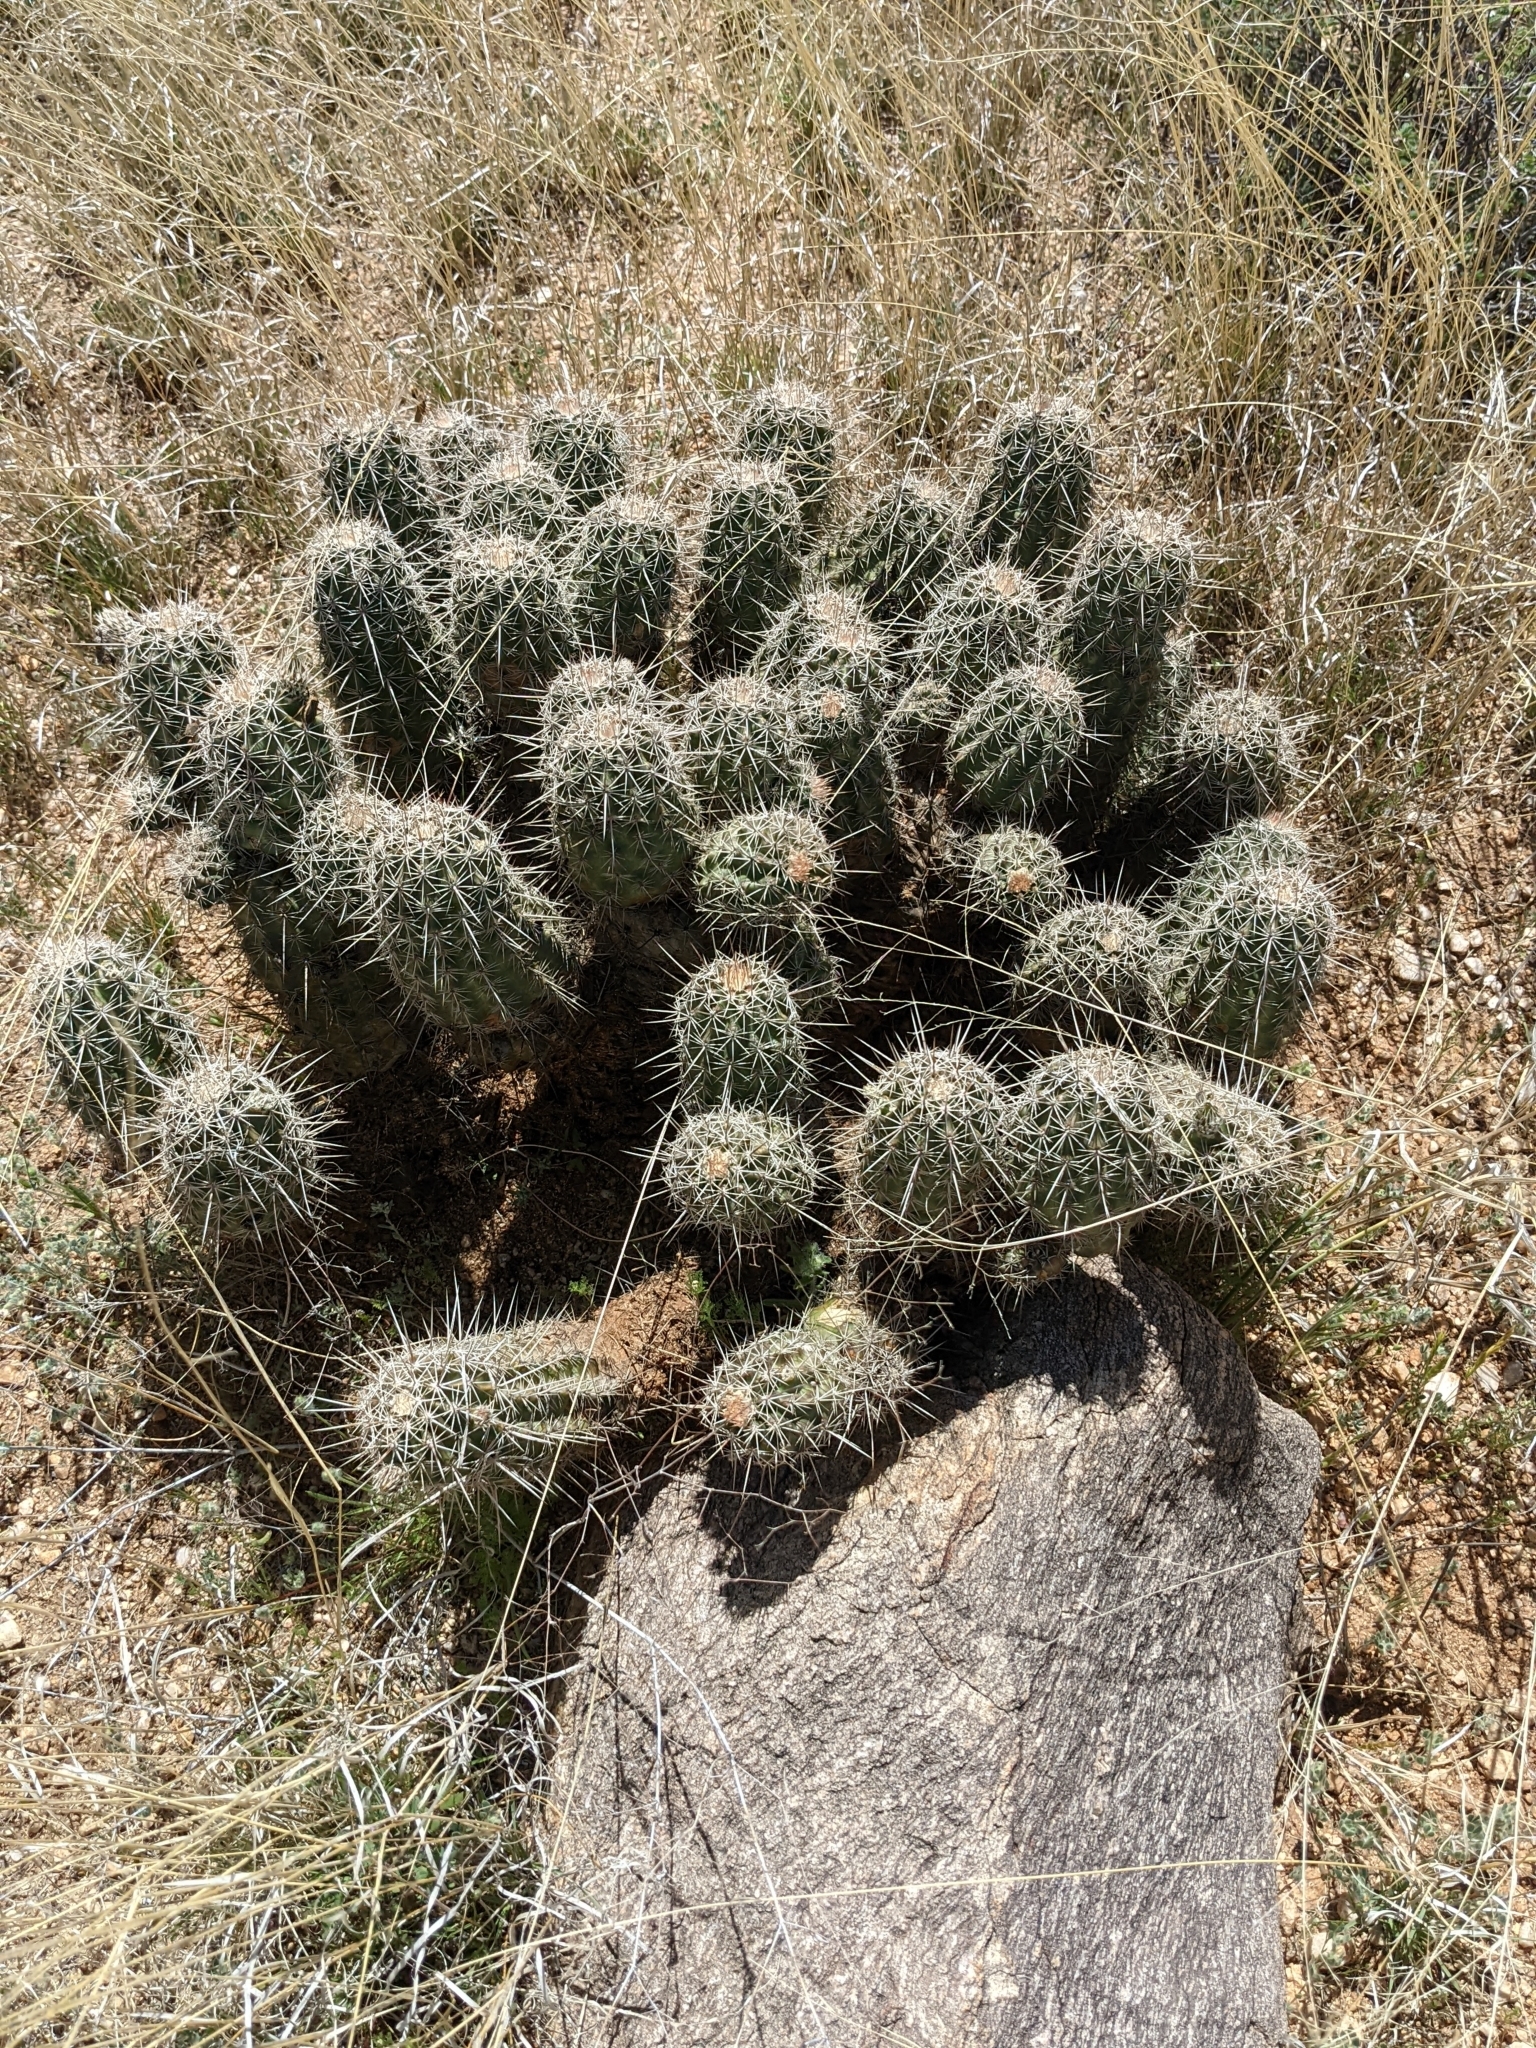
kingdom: Plantae
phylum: Tracheophyta
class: Magnoliopsida
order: Caryophyllales
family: Cactaceae
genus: Echinocereus
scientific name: Echinocereus fasciculatus
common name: Bundle hedgehog
